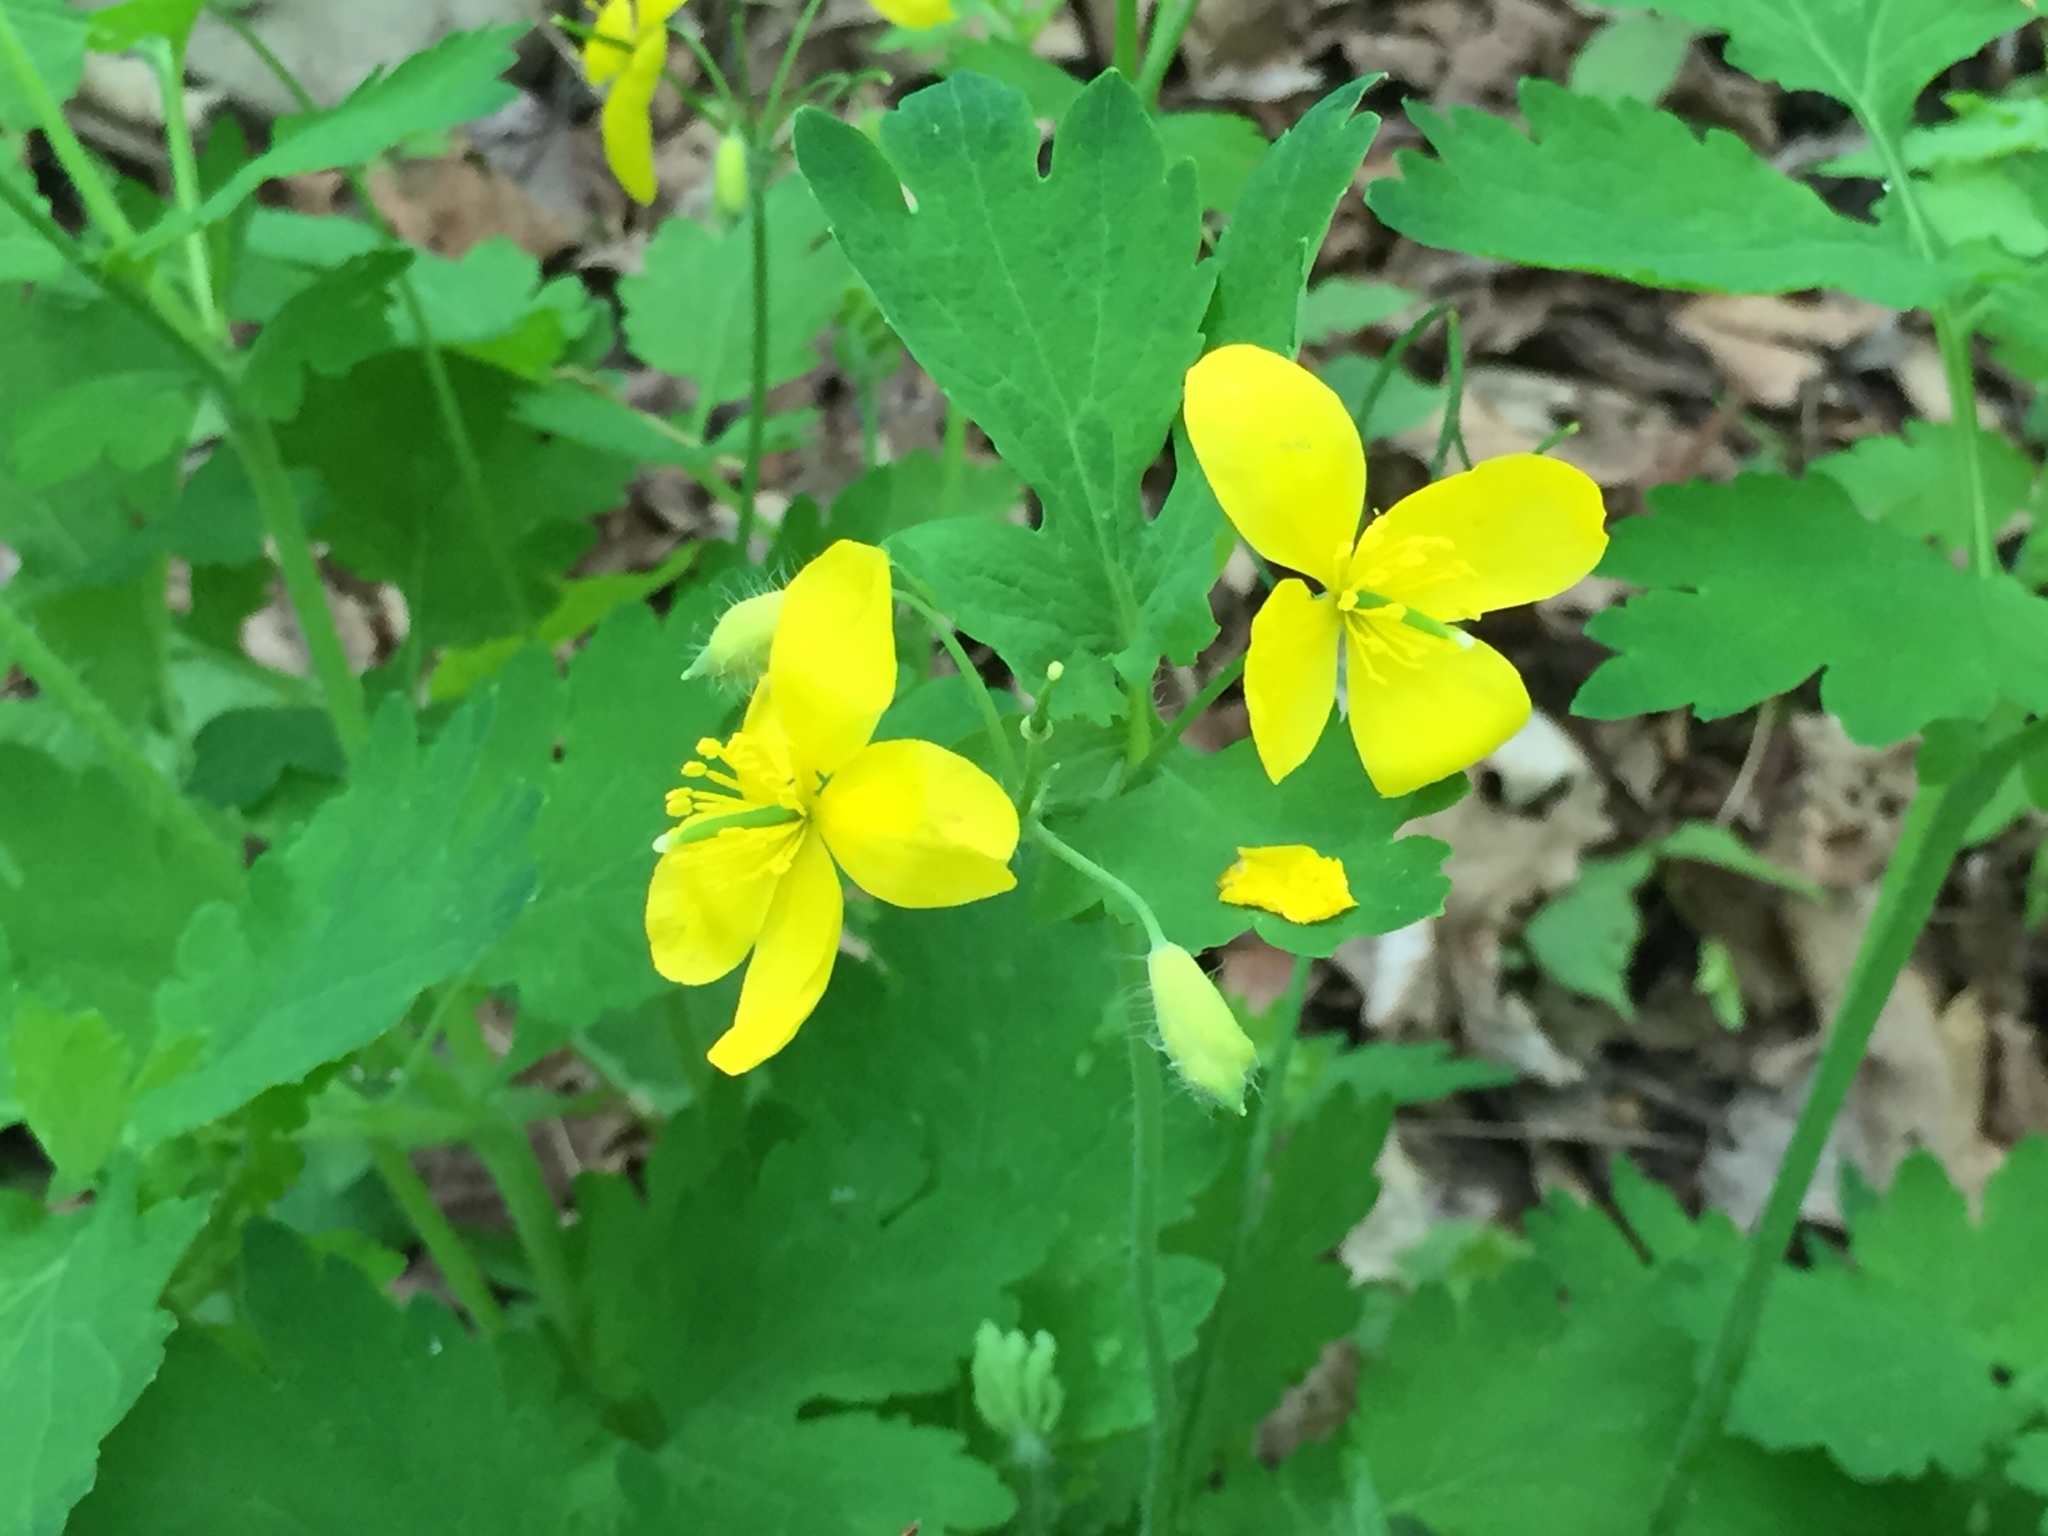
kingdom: Plantae
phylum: Tracheophyta
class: Magnoliopsida
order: Ranunculales
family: Papaveraceae
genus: Chelidonium
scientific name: Chelidonium majus
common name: Greater celandine
